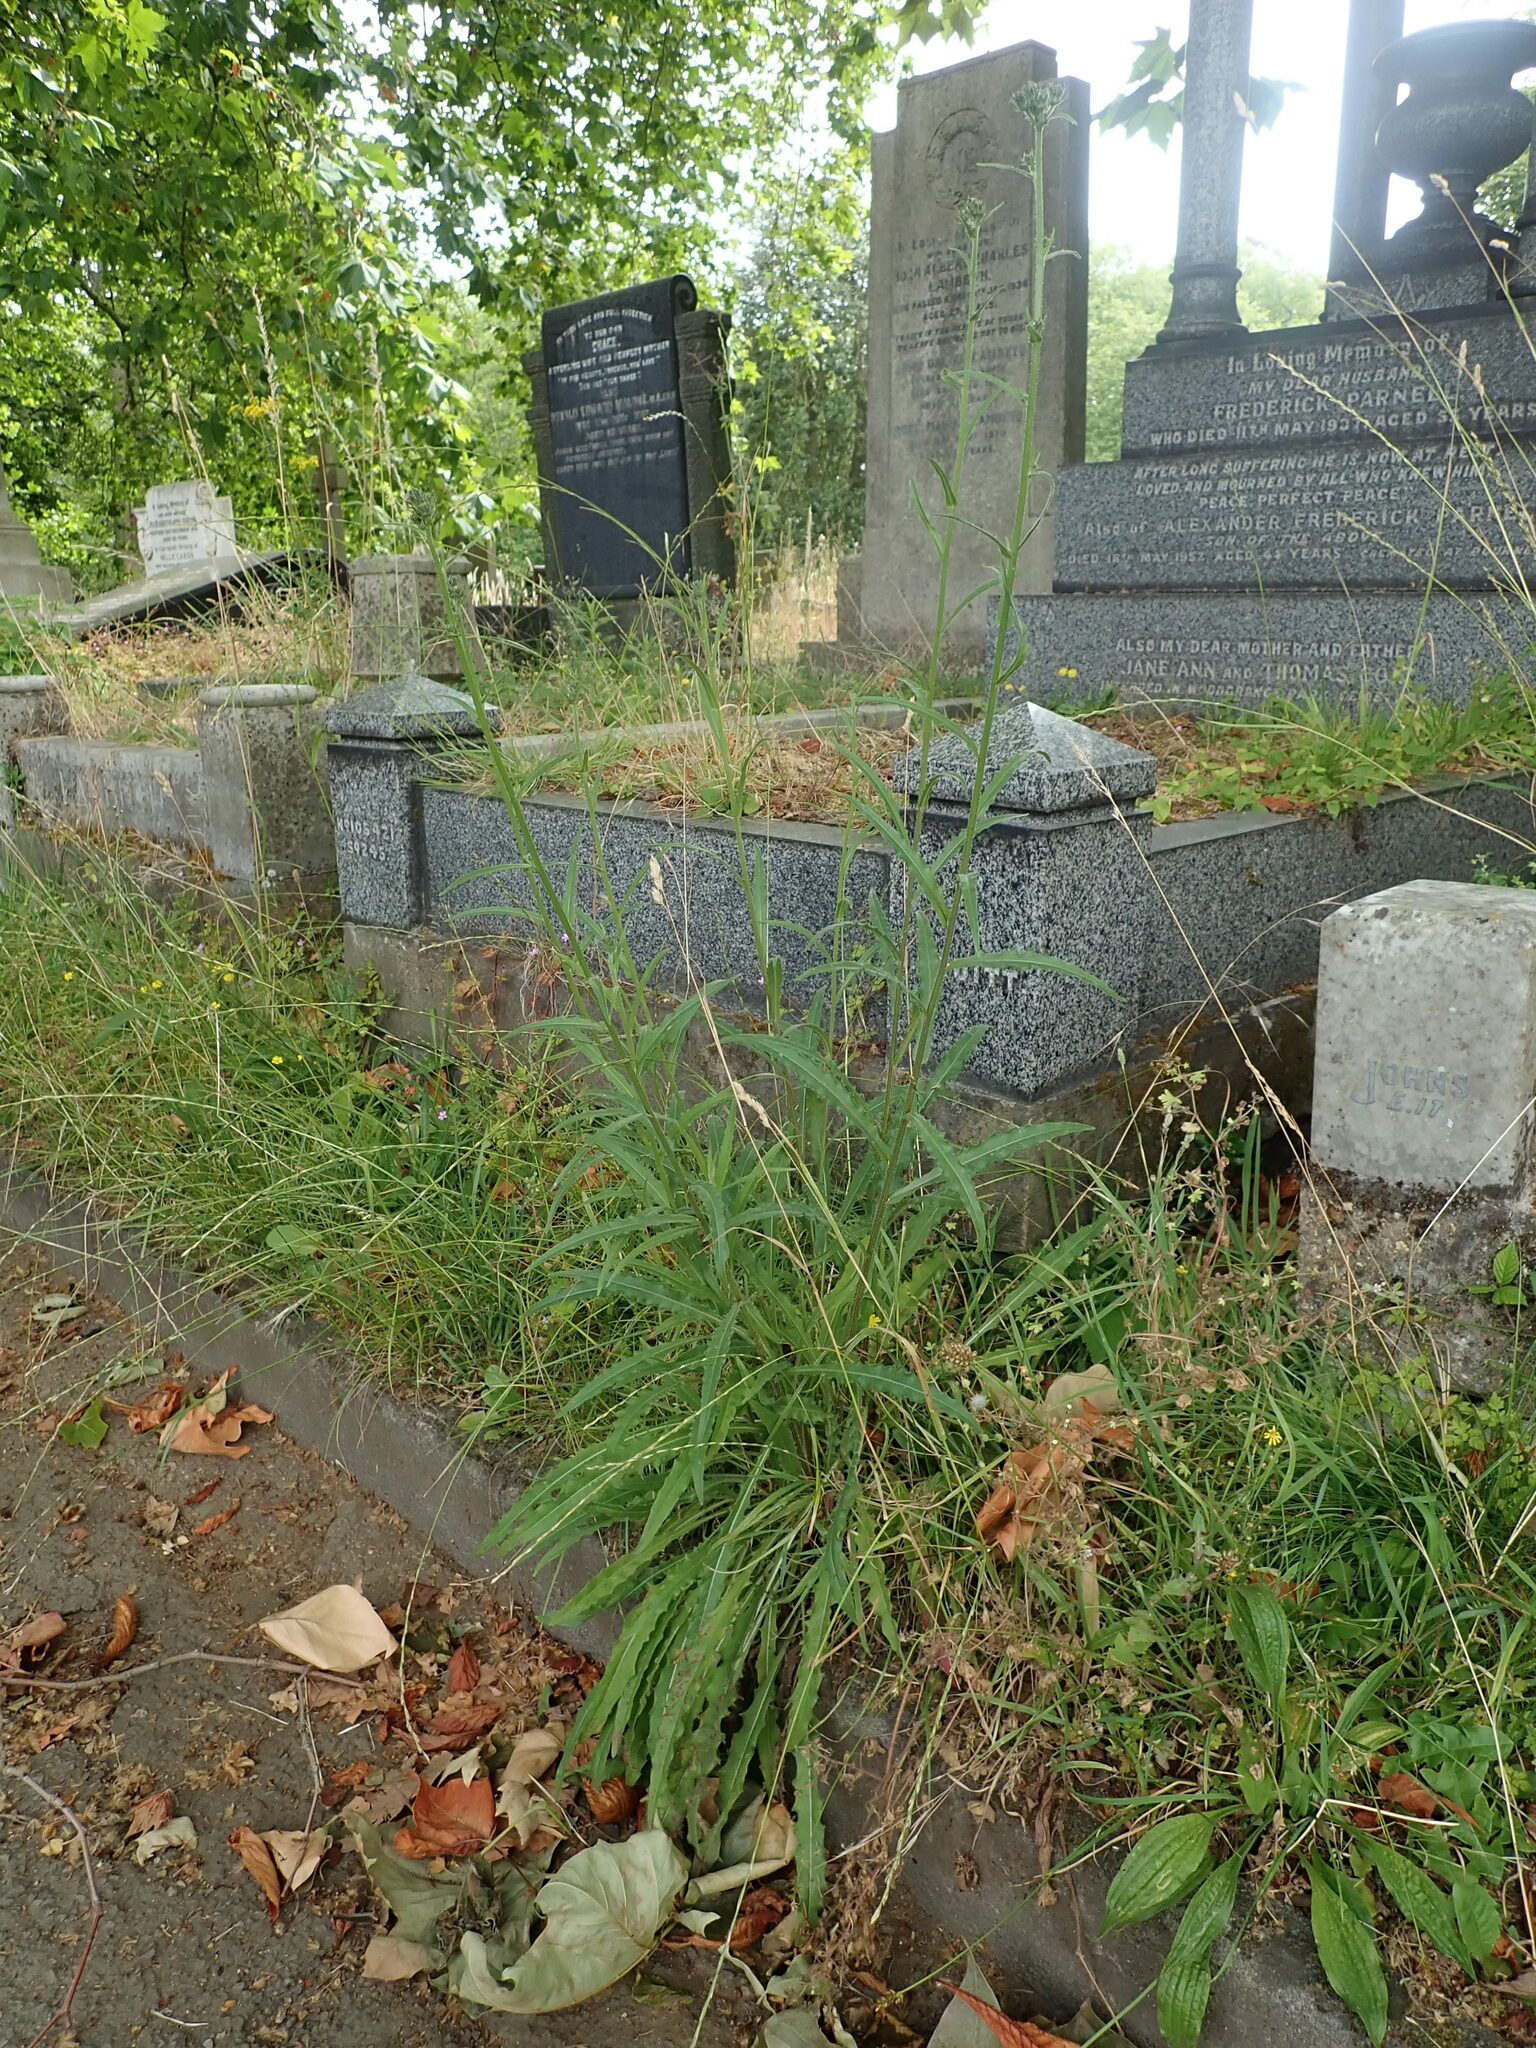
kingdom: Plantae
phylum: Tracheophyta
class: Magnoliopsida
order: Asterales
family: Asteraceae
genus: Picris
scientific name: Picris hieracioides
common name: Hawkweed oxtongue
